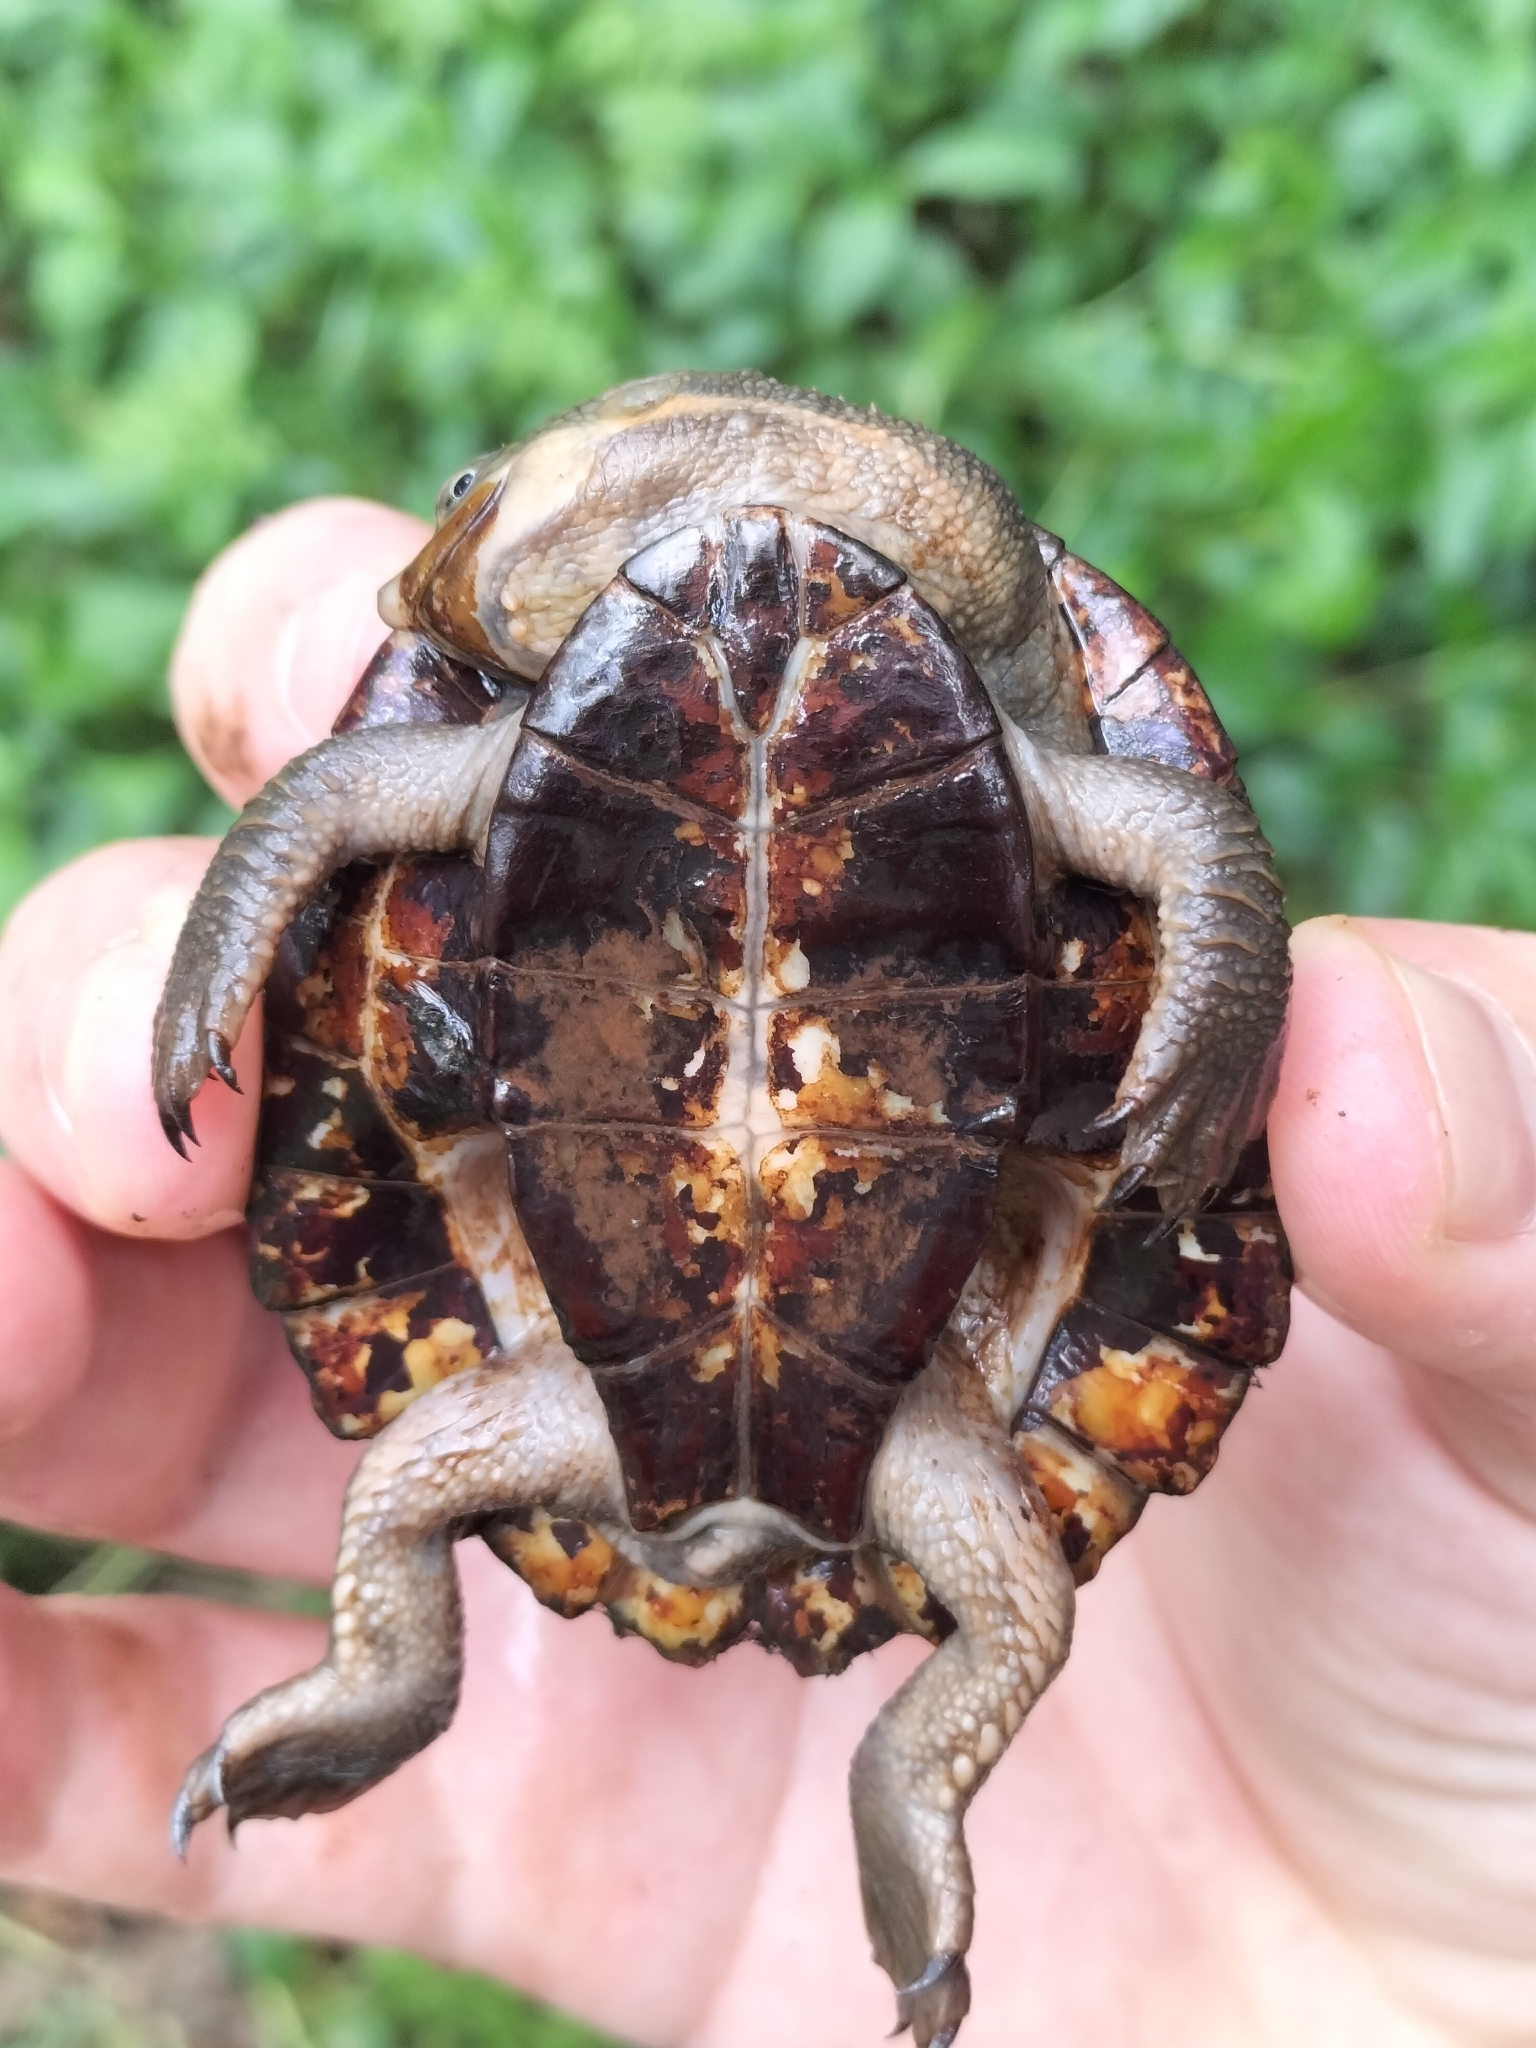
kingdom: Animalia
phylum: Chordata
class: Testudines
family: Chelidae
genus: Myuchelys
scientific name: Myuchelys latisternum
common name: Serrated snapping turtle
